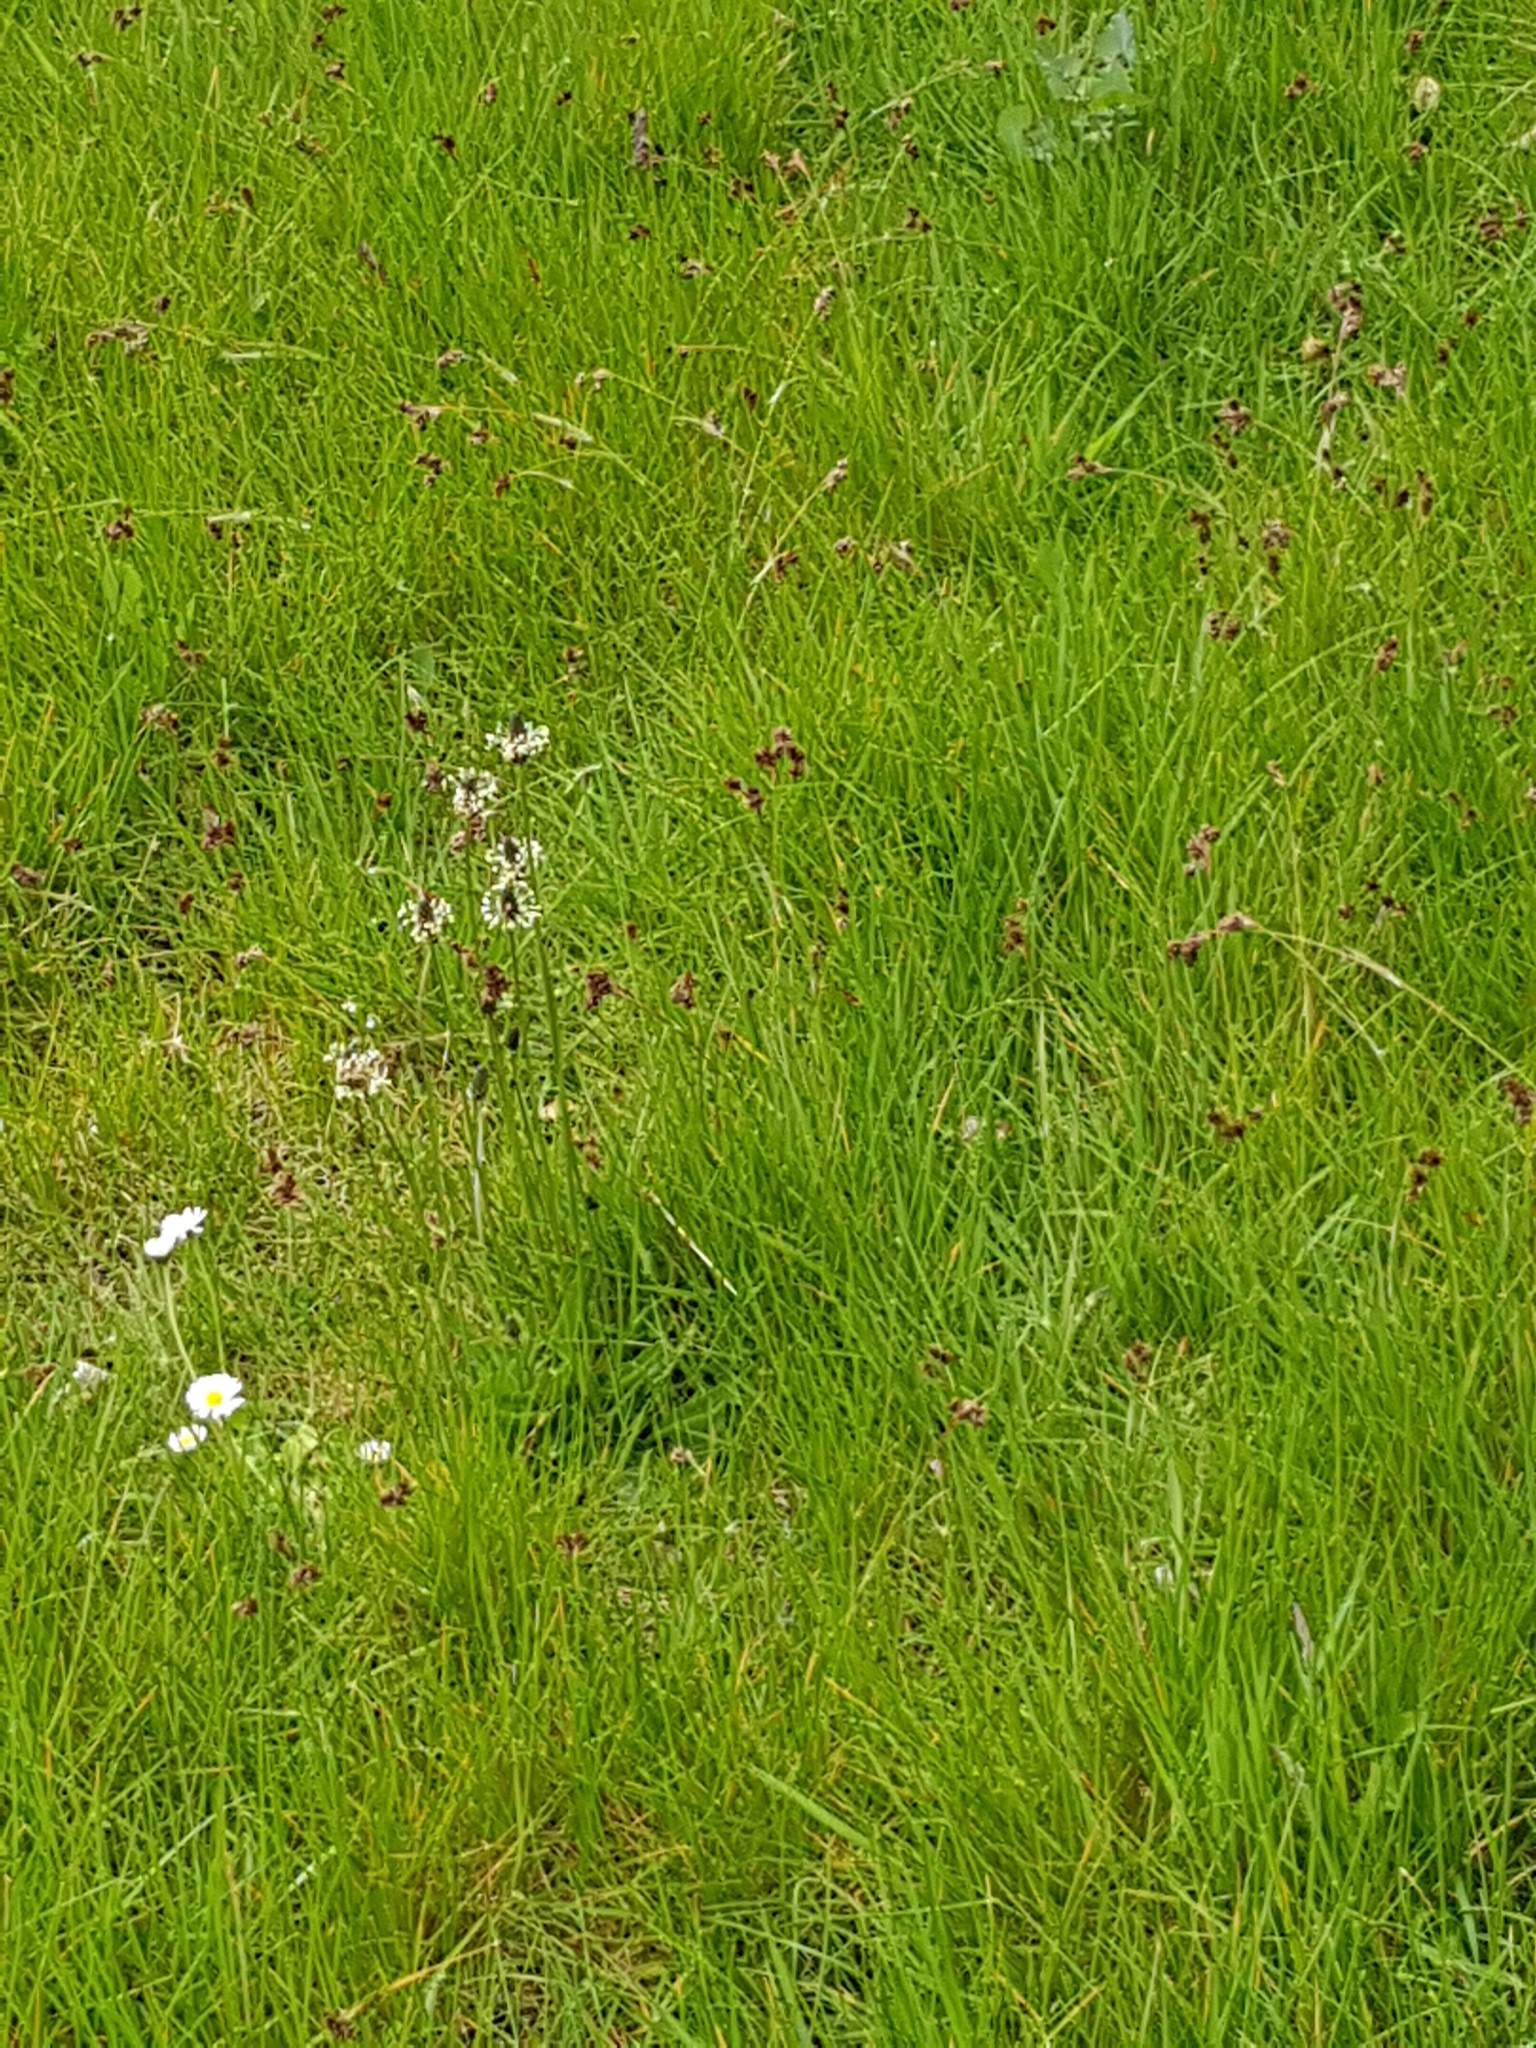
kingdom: Plantae
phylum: Tracheophyta
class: Magnoliopsida
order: Lamiales
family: Plantaginaceae
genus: Plantago
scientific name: Plantago lanceolata
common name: Ribwort plantain
